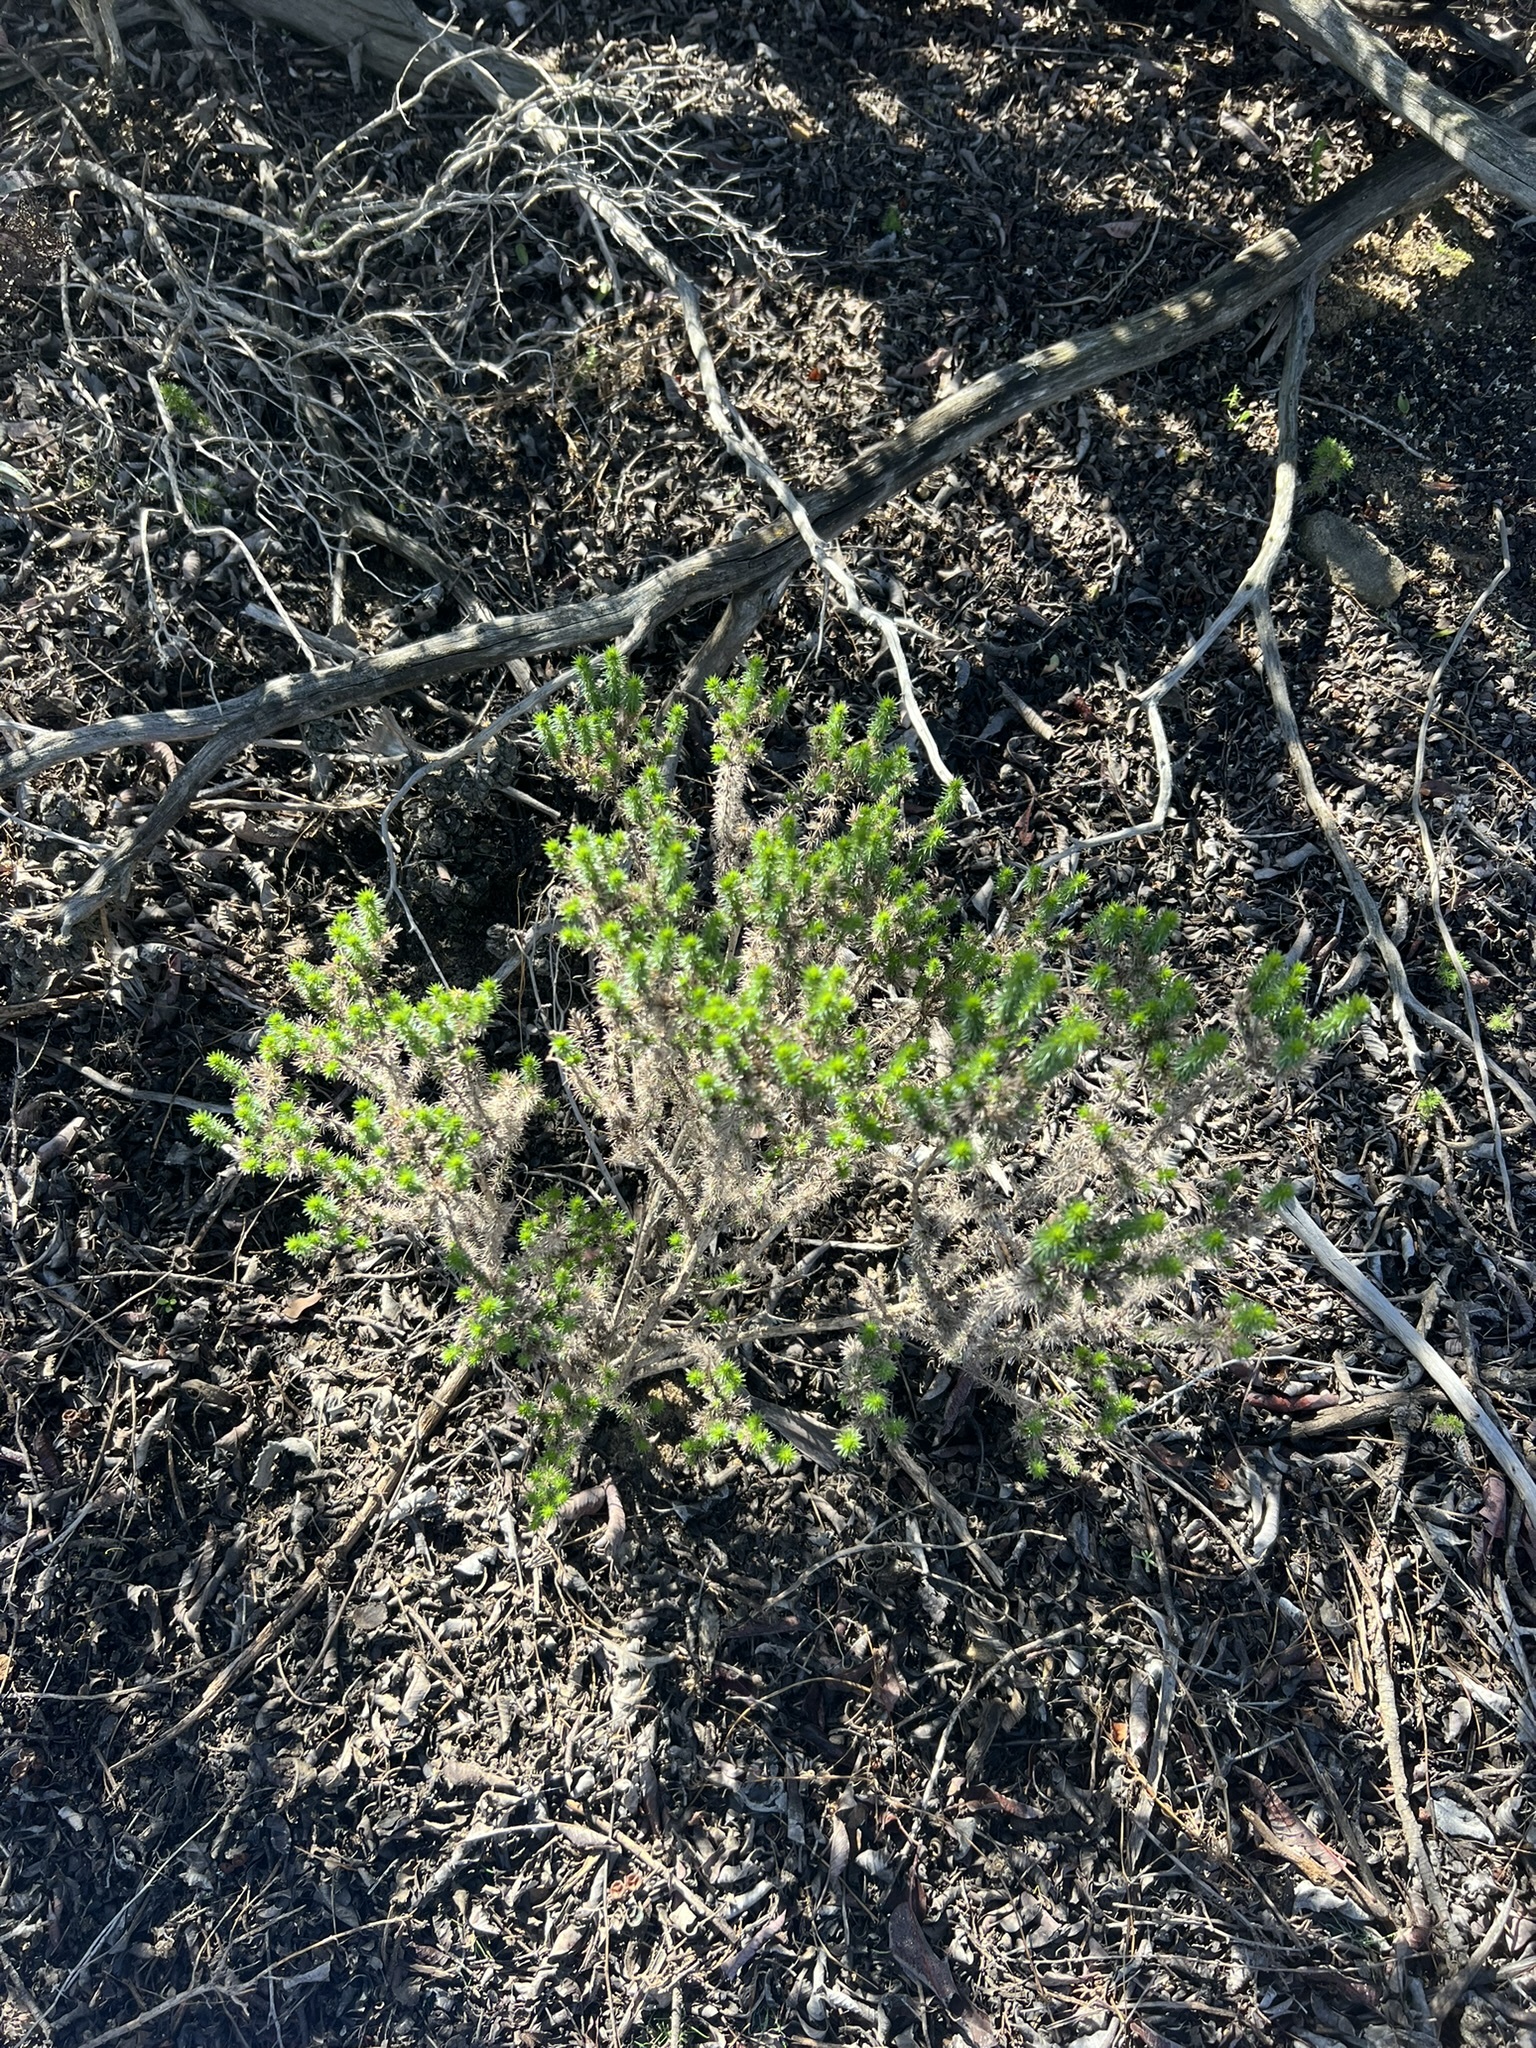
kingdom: Plantae
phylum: Tracheophyta
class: Magnoliopsida
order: Ericales
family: Polemoniaceae
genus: Linanthus
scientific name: Linanthus californicus
